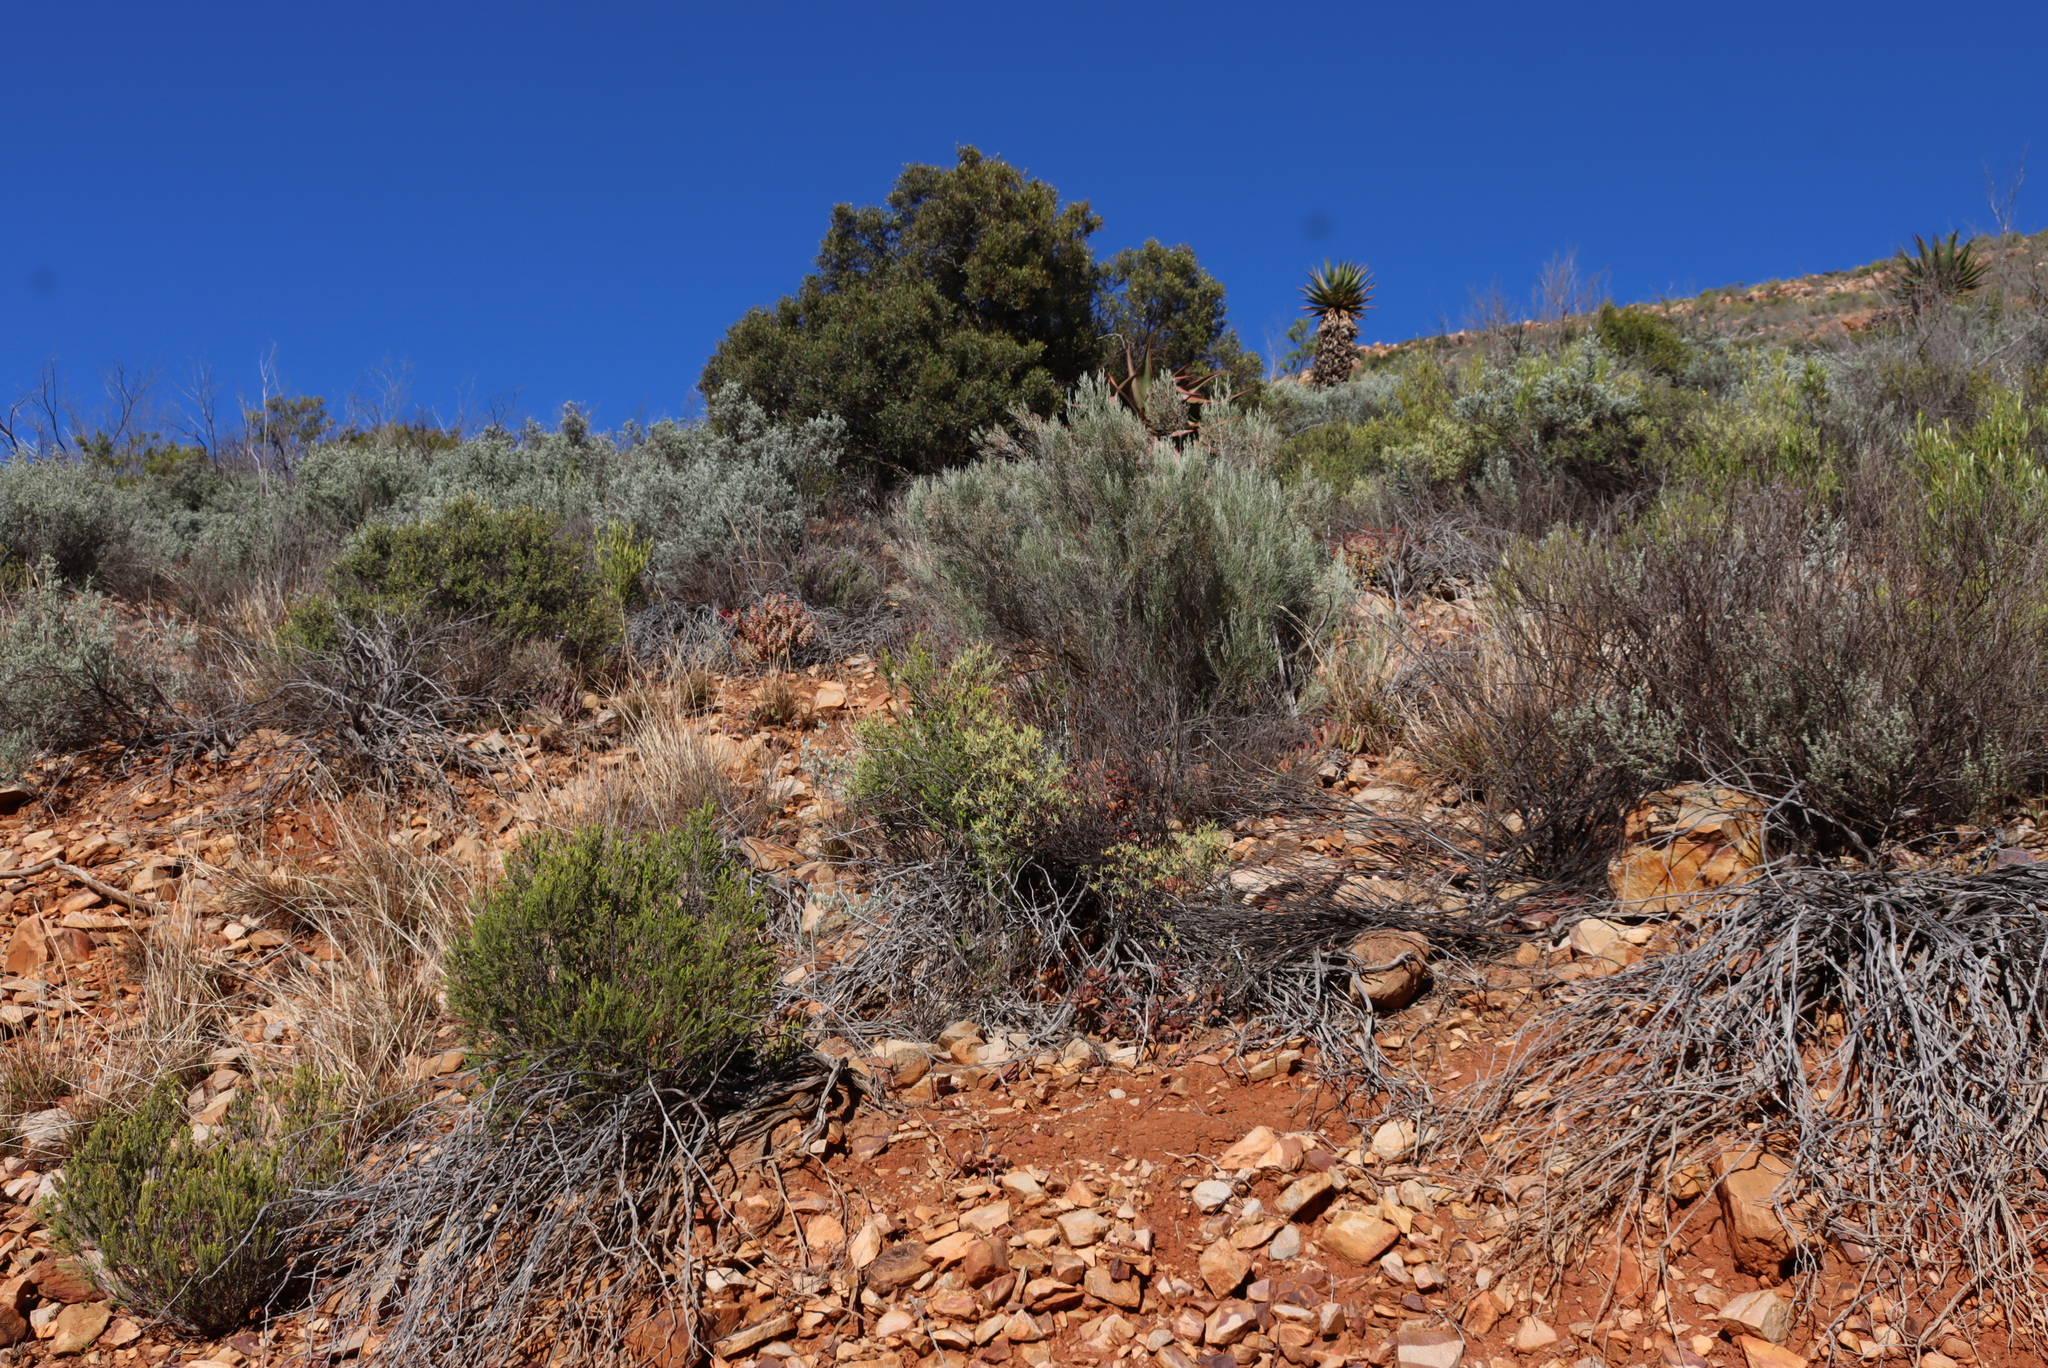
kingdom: Plantae
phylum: Tracheophyta
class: Magnoliopsida
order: Asterales
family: Asteraceae
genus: Dicerothamnus
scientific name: Dicerothamnus rhinocerotis
